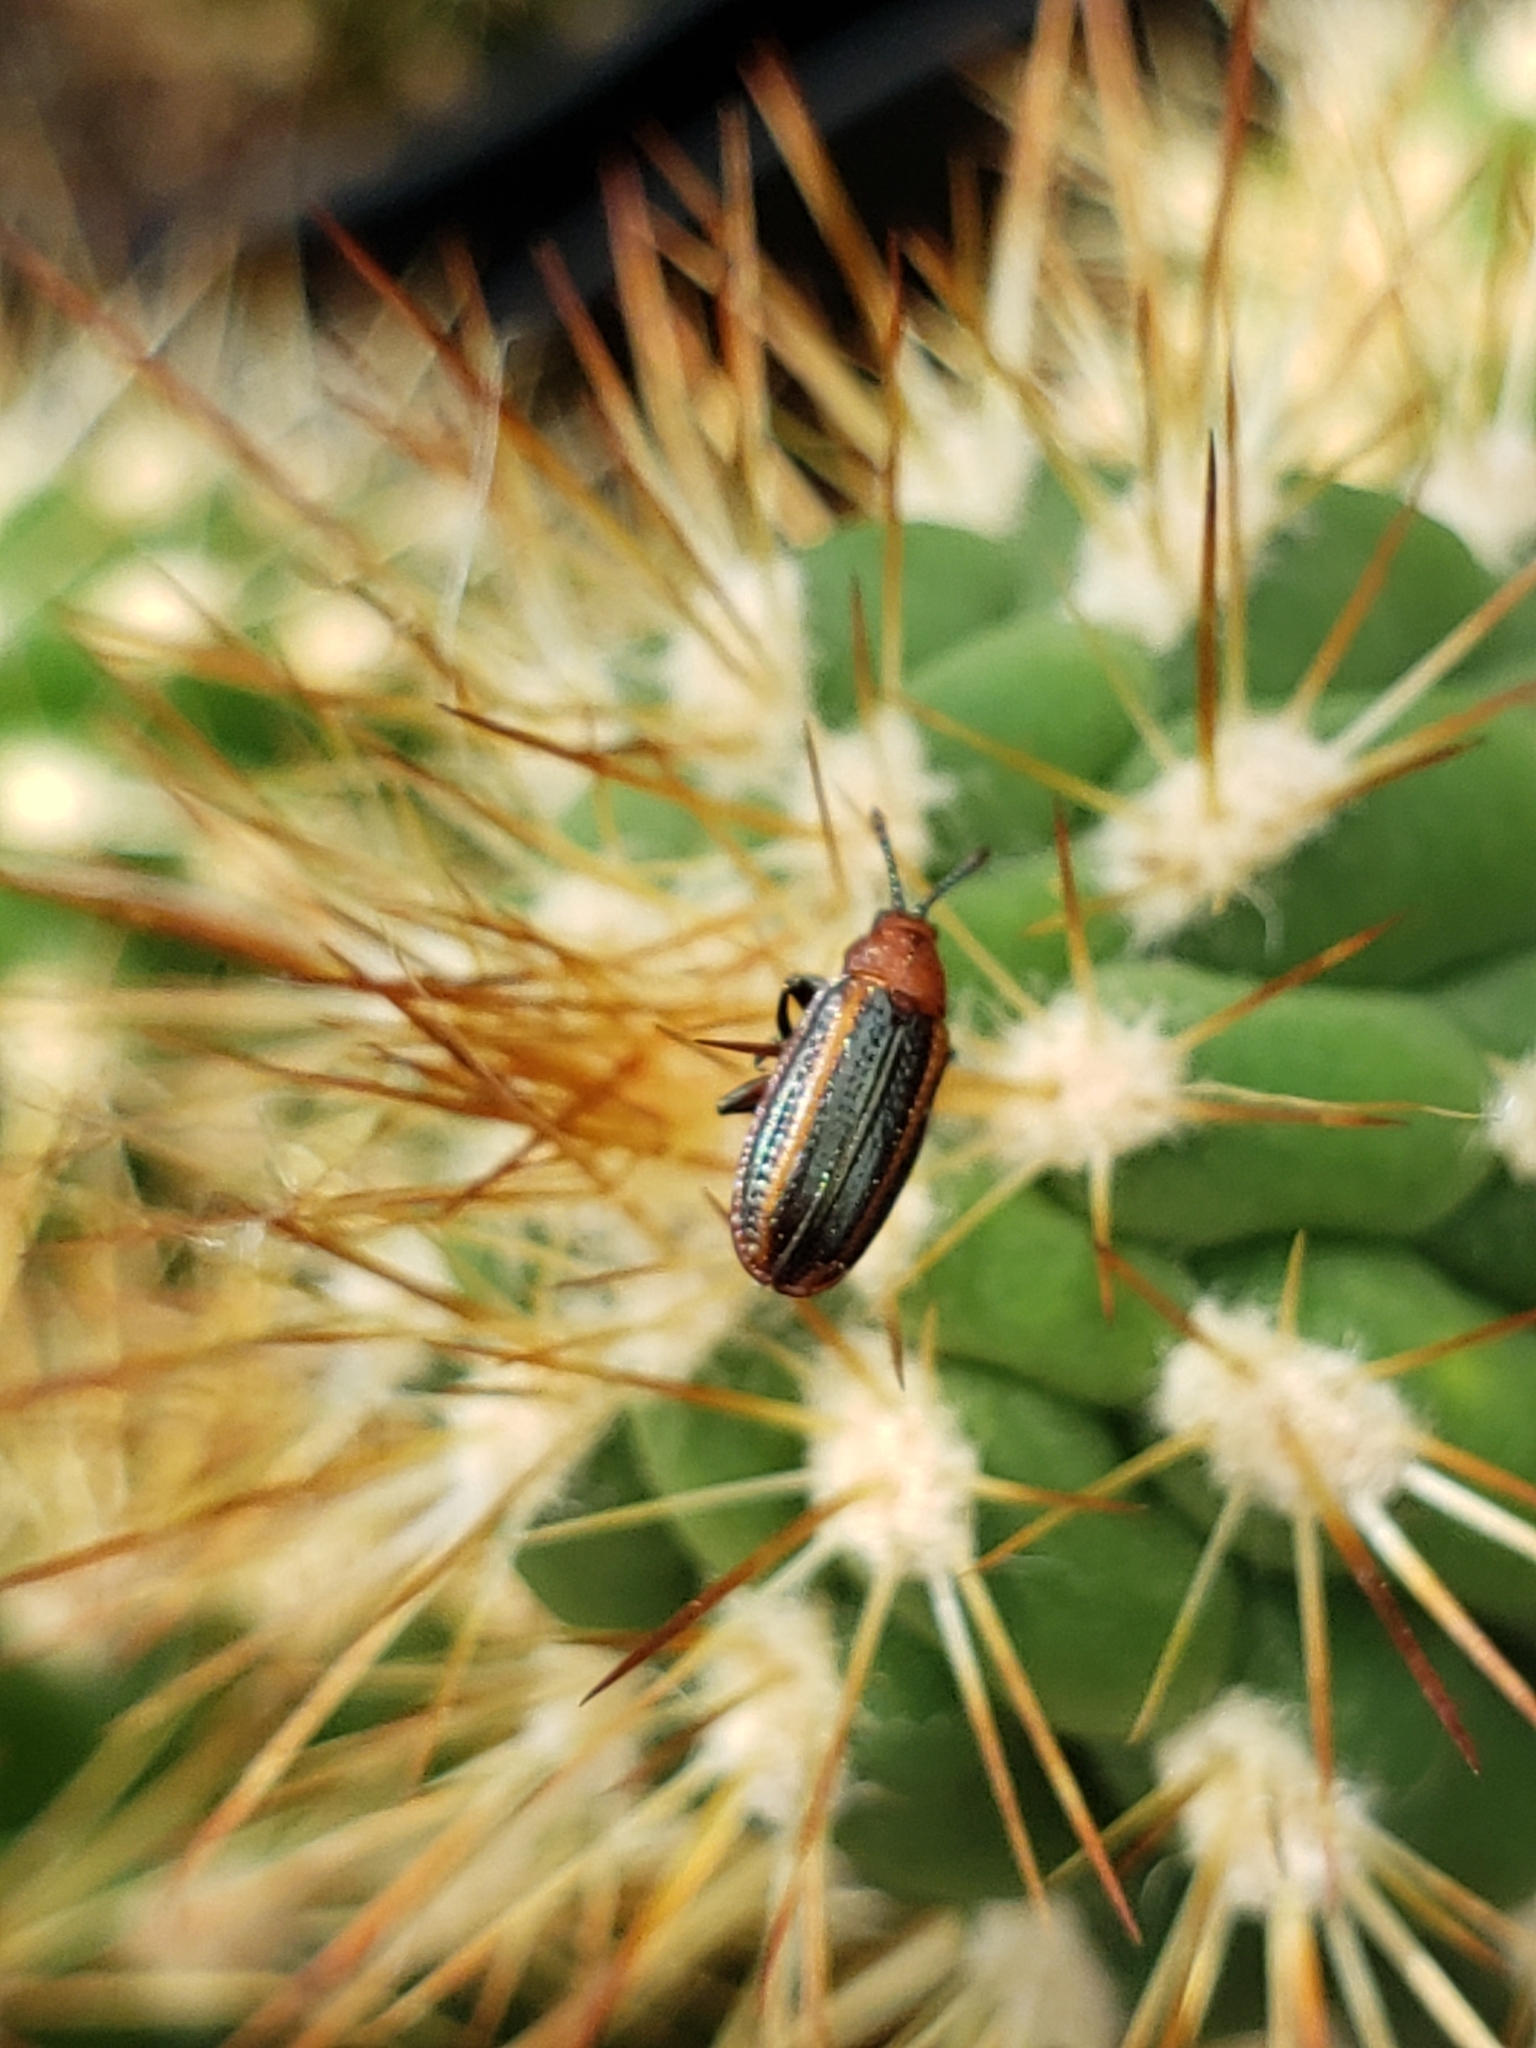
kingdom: Animalia
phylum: Arthropoda
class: Insecta
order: Coleoptera
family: Chrysomelidae
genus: Microrhopala
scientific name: Microrhopala vittata
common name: Goldenrod leaf miner beetle
